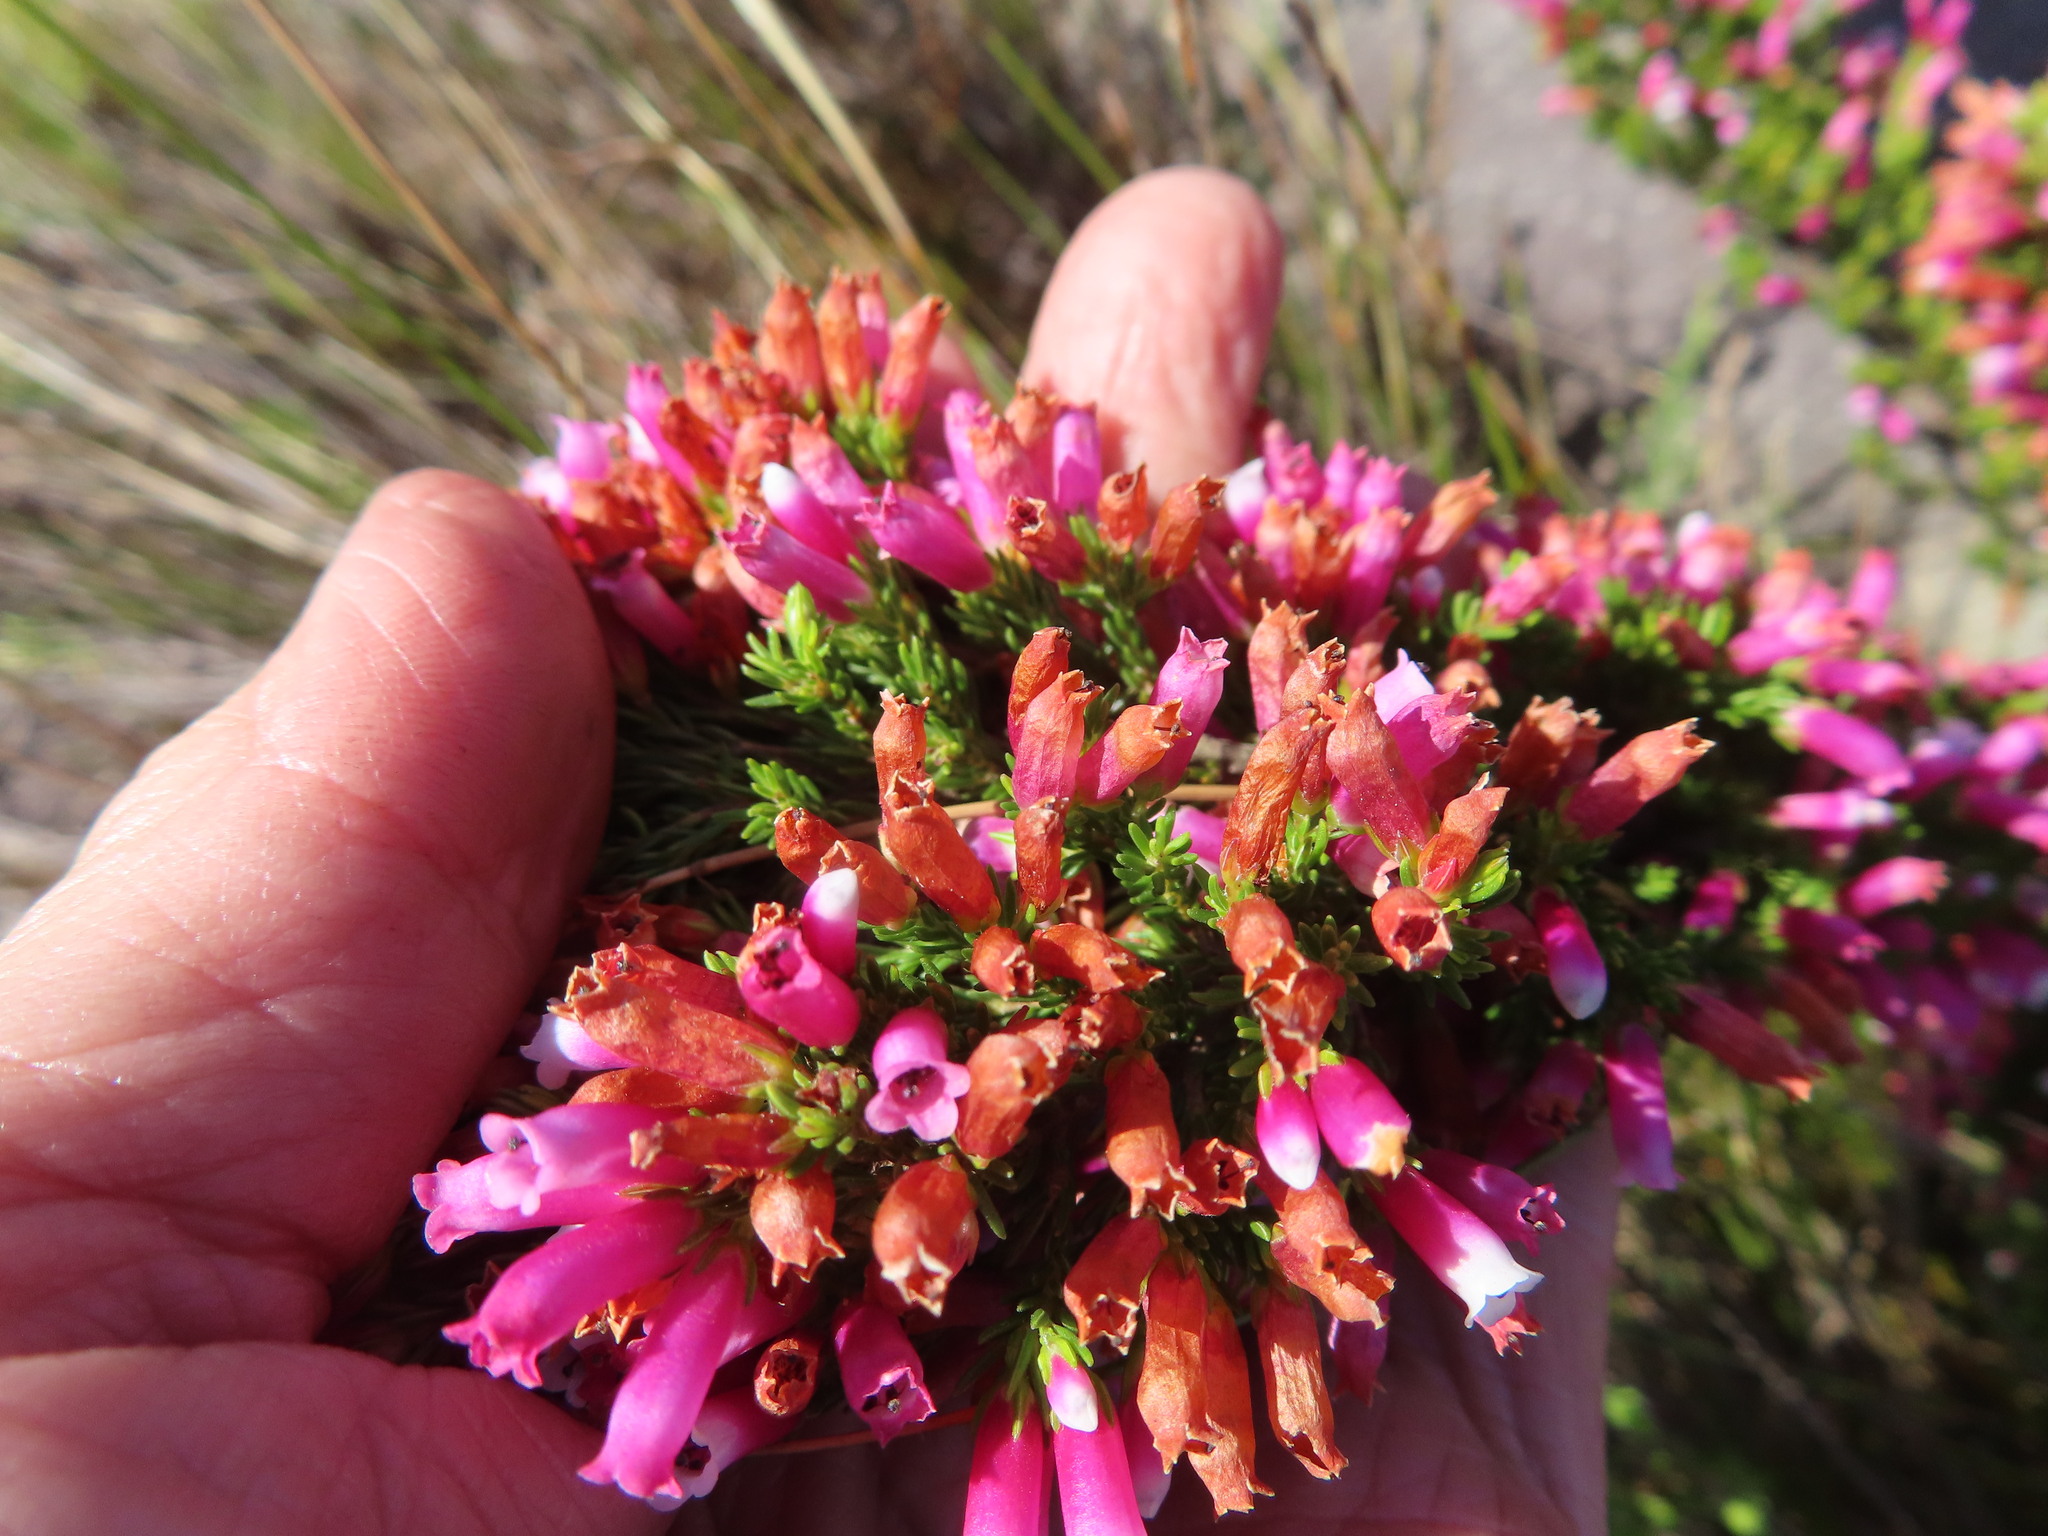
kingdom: Plantae
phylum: Tracheophyta
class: Magnoliopsida
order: Ericales
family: Ericaceae
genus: Erica
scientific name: Erica sitiens
